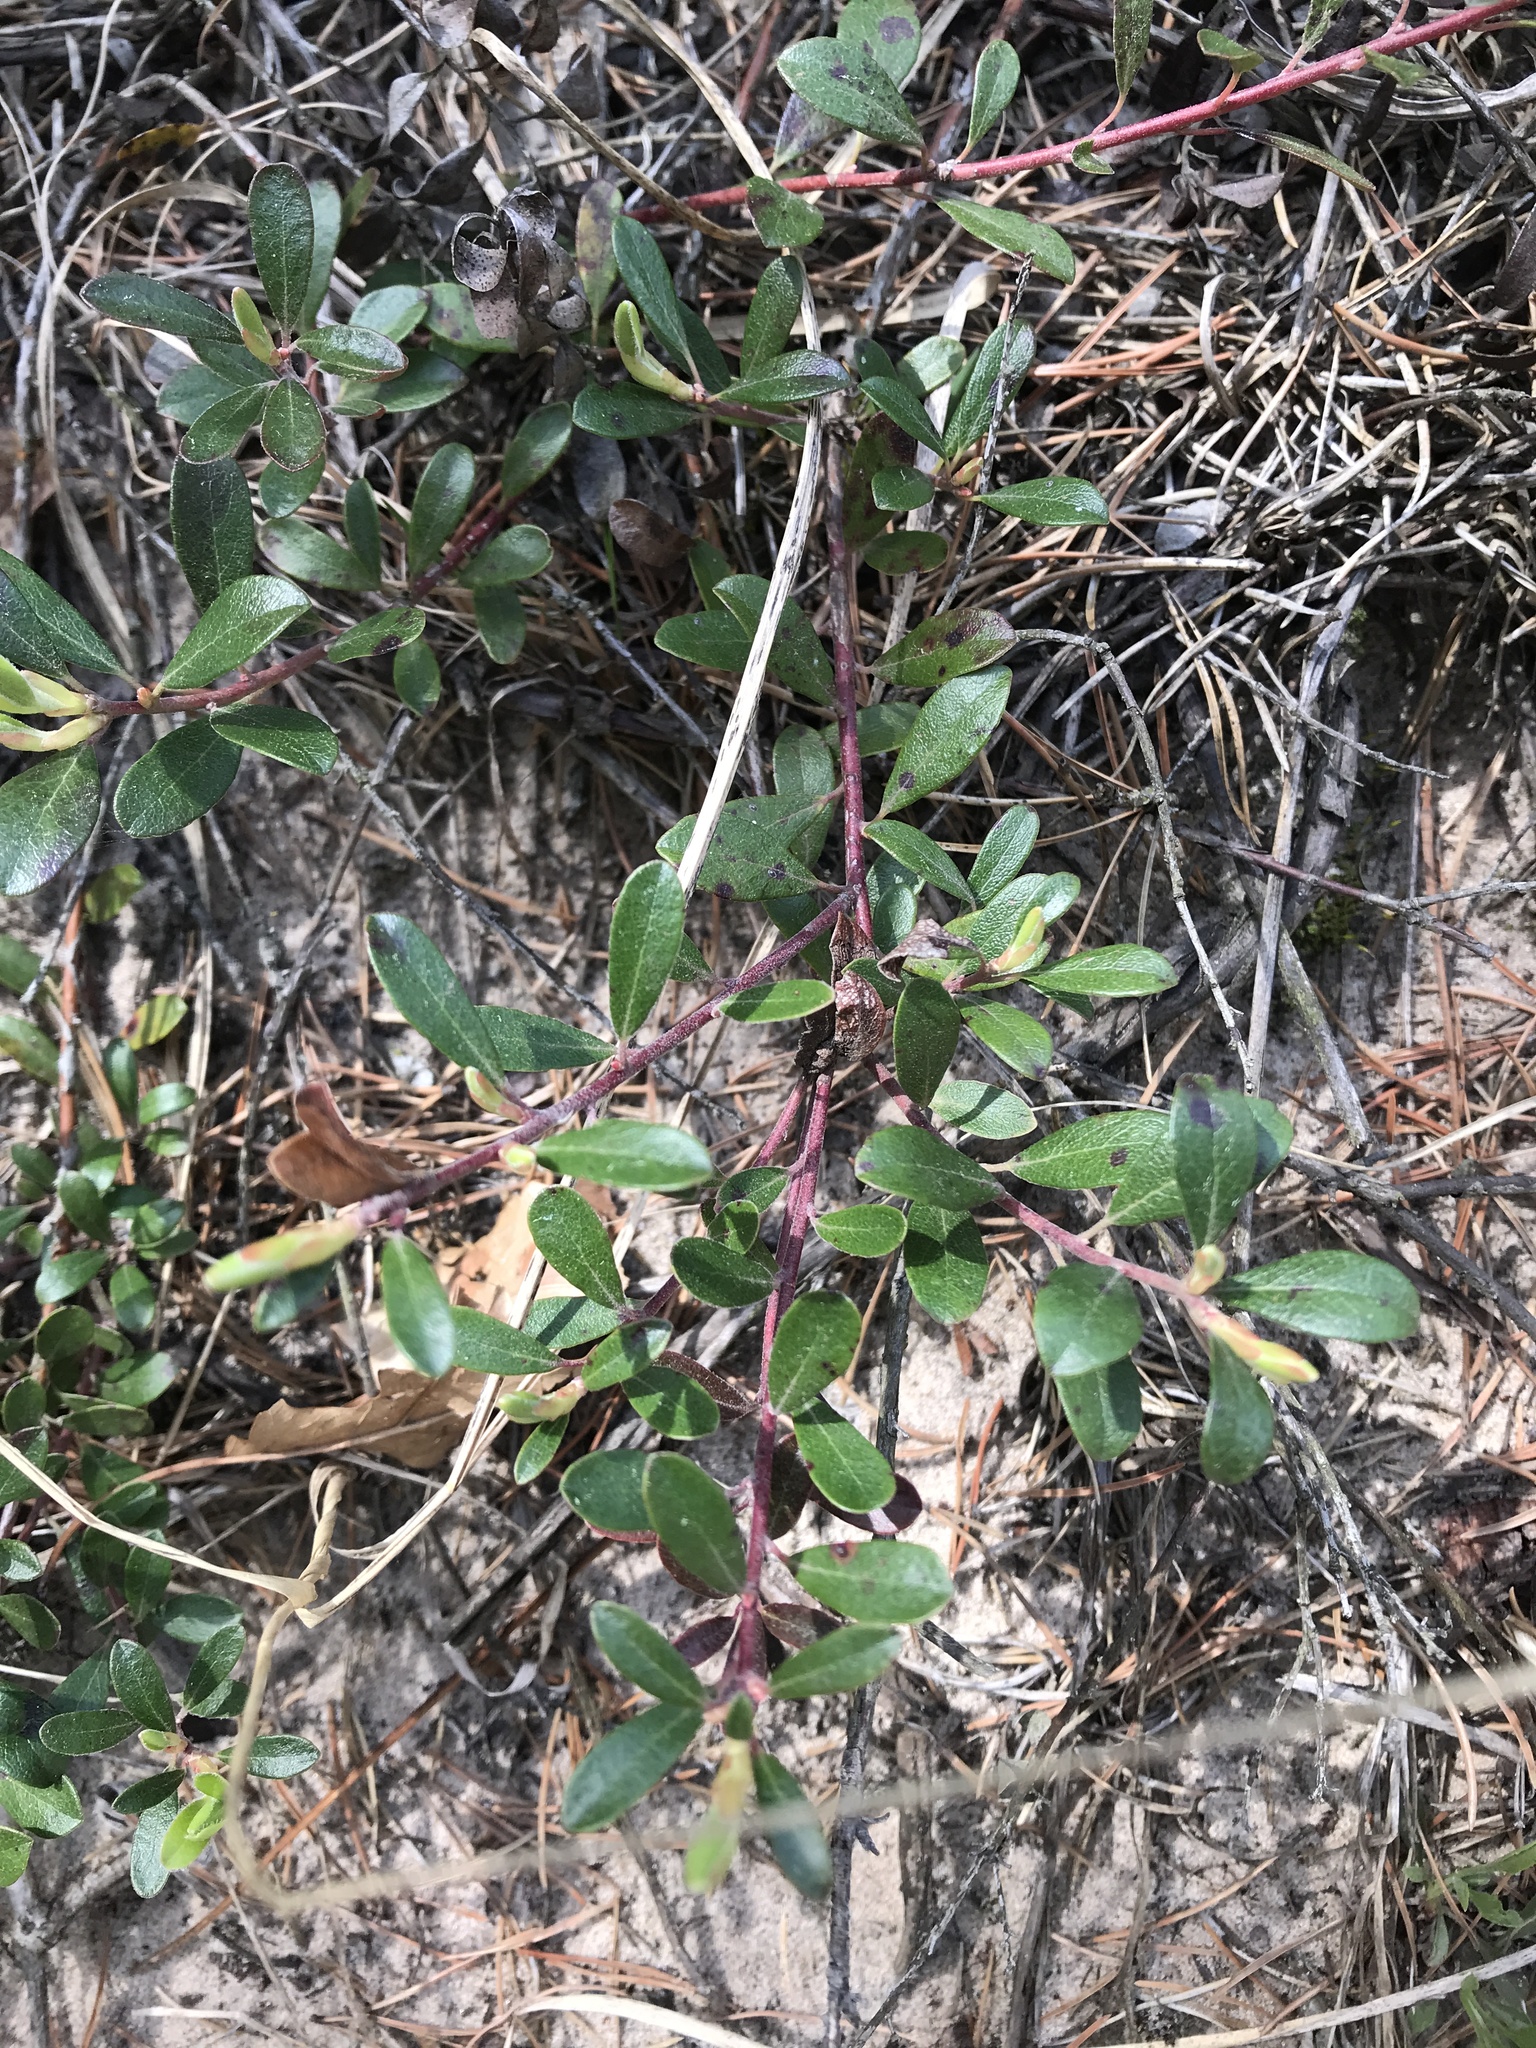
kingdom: Plantae
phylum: Tracheophyta
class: Magnoliopsida
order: Ericales
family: Ericaceae
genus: Arctostaphylos
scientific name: Arctostaphylos uva-ursi
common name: Bearberry
